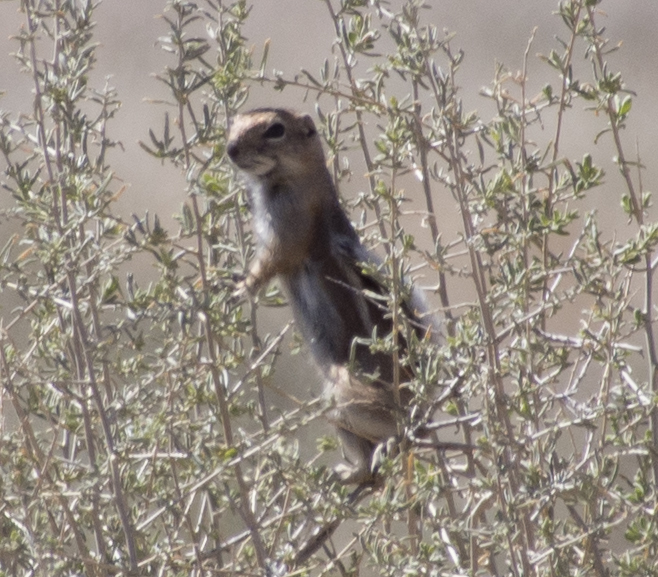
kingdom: Animalia
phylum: Chordata
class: Mammalia
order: Rodentia
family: Sciuridae
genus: Ammospermophilus
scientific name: Ammospermophilus leucurus
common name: White-tailed antelope squirrel
